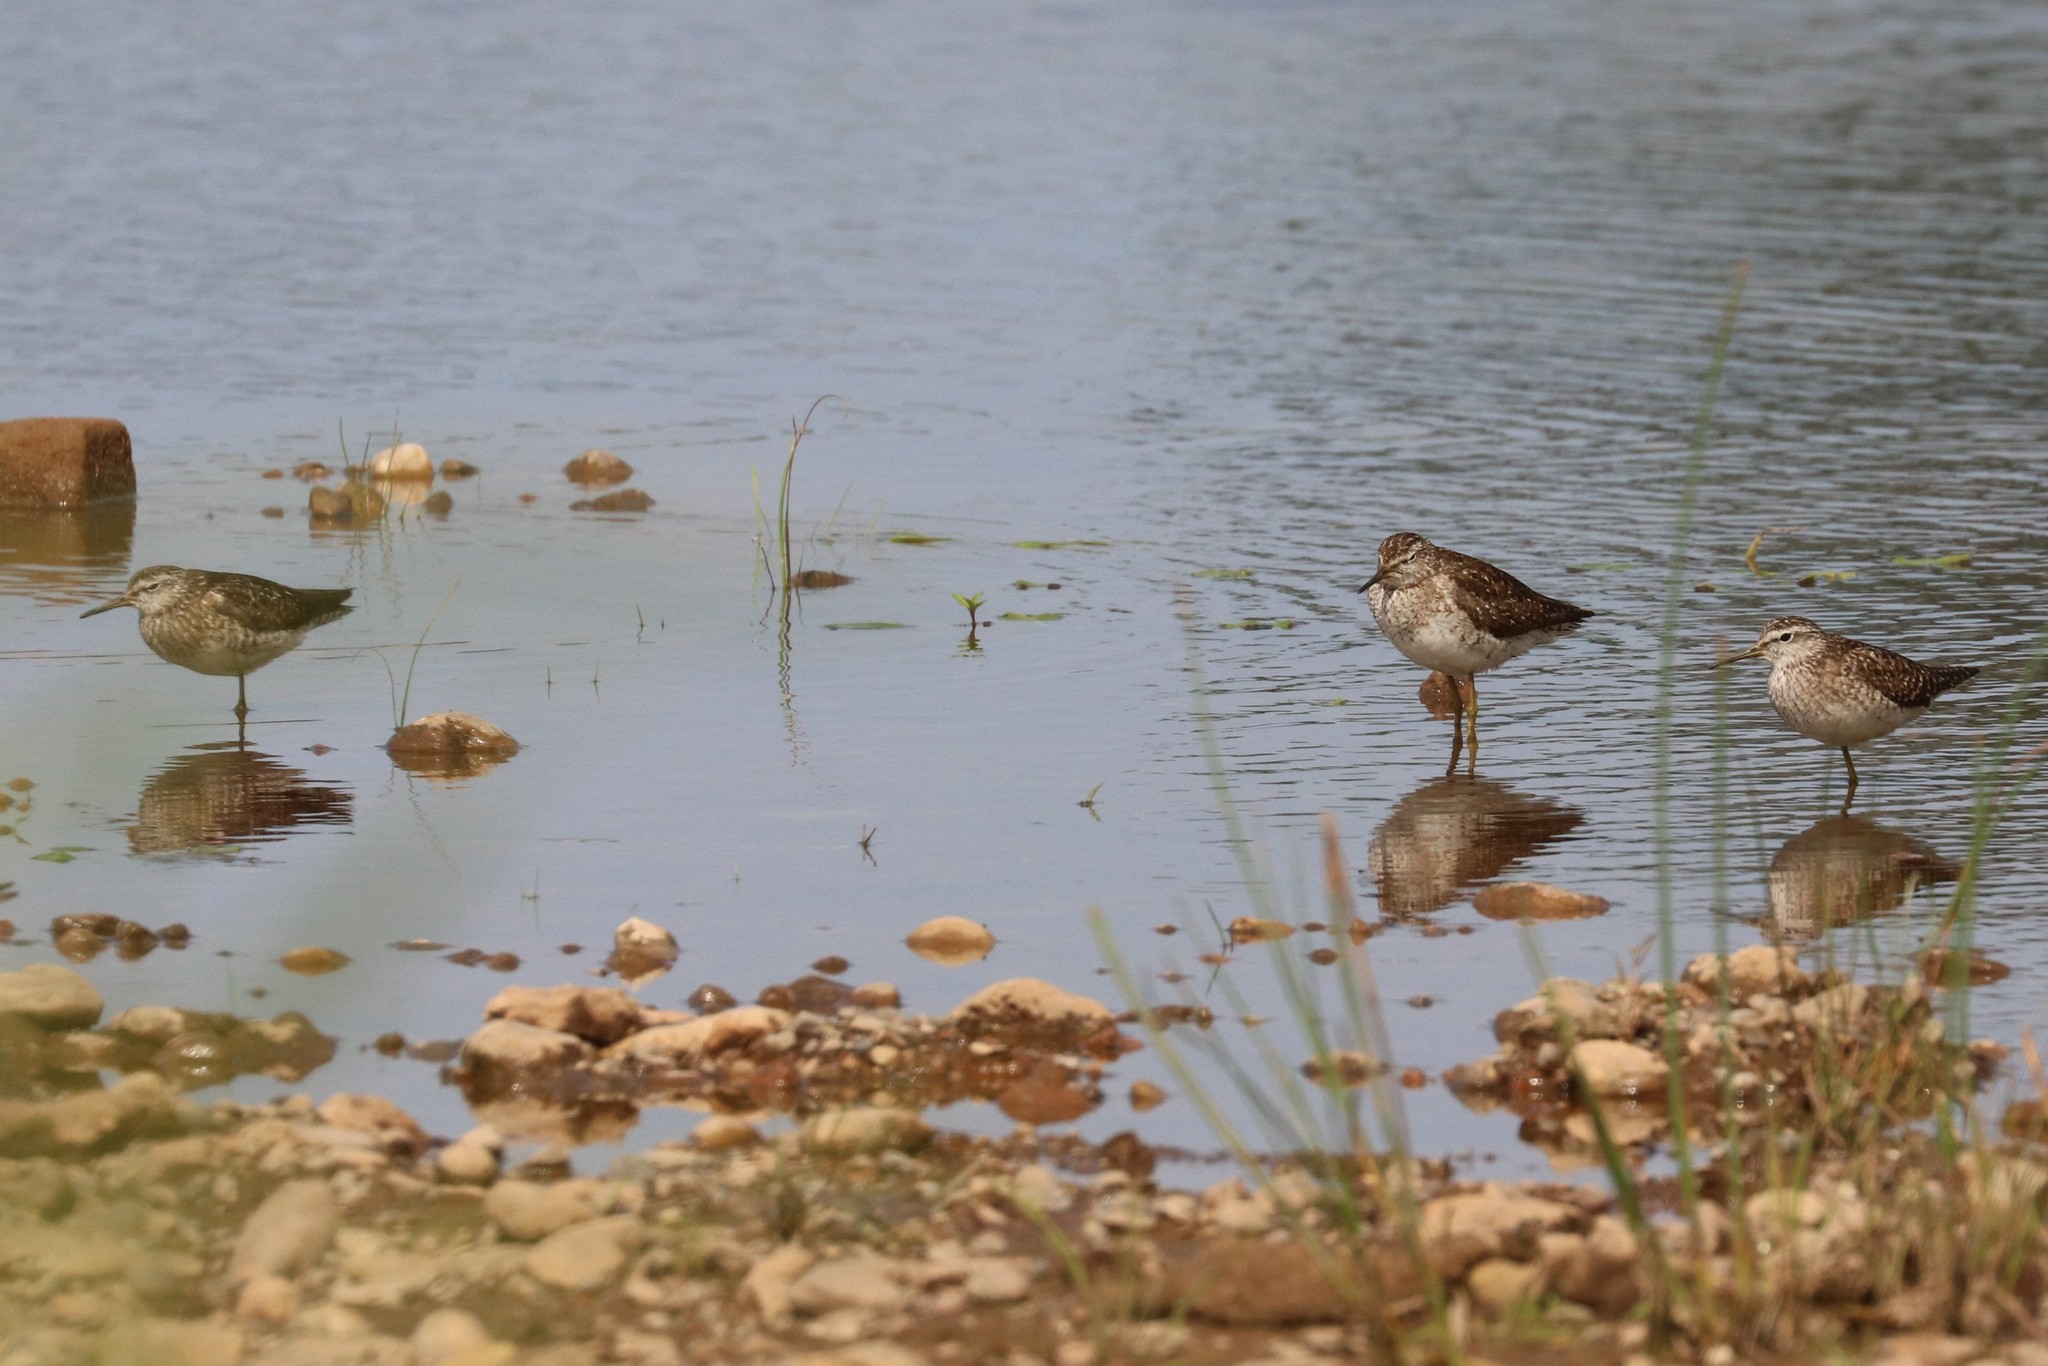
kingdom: Animalia
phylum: Chordata
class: Aves
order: Charadriiformes
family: Scolopacidae
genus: Tringa
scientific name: Tringa glareola
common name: Wood sandpiper
